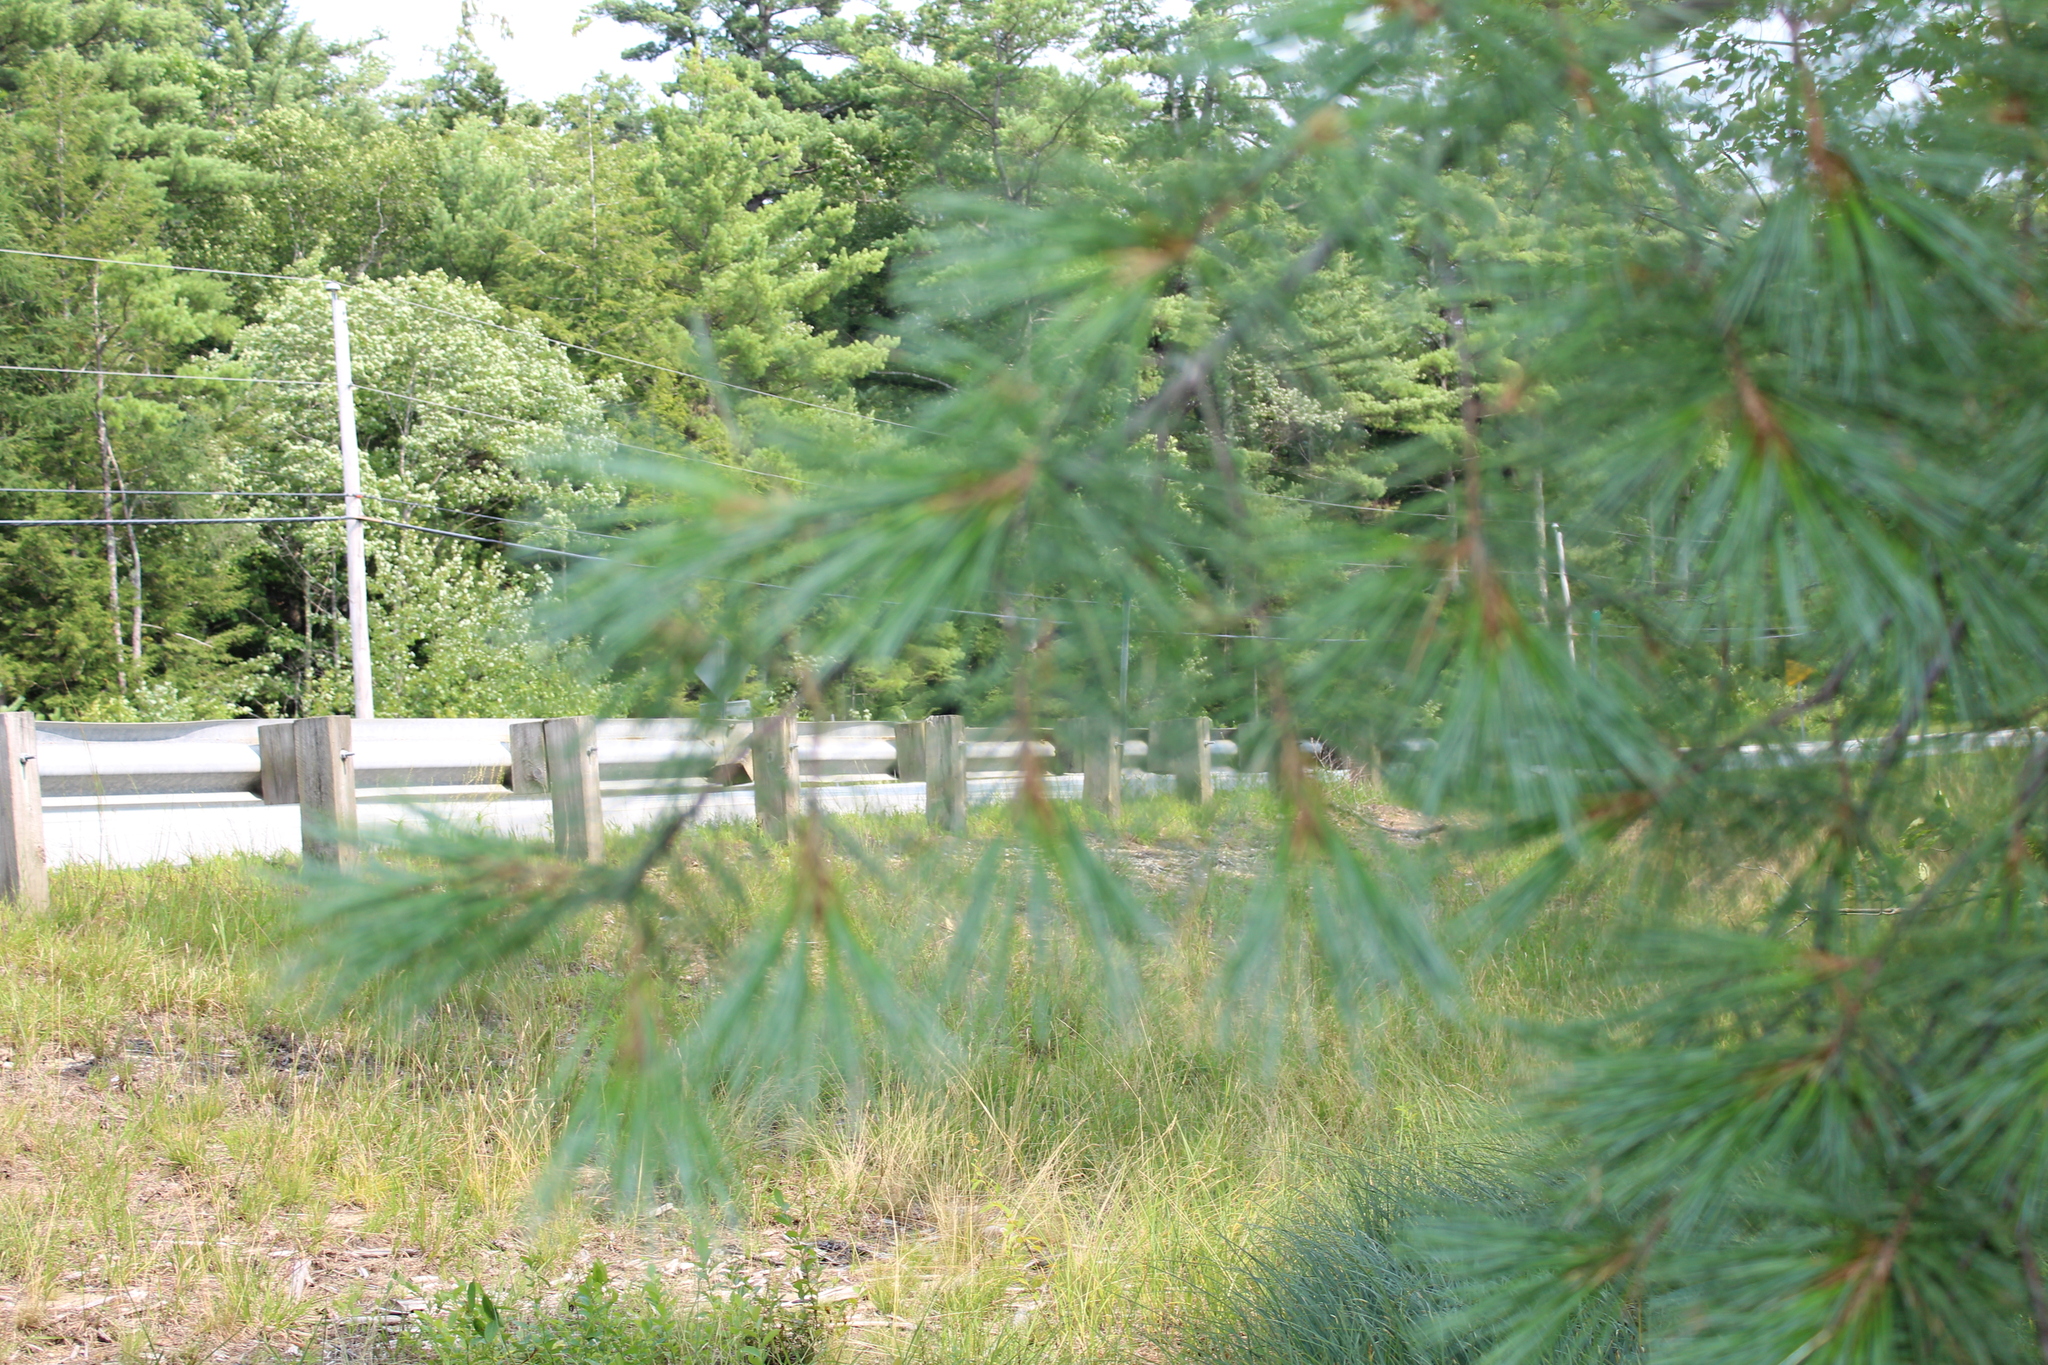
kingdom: Plantae
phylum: Tracheophyta
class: Pinopsida
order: Pinales
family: Pinaceae
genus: Pinus
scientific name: Pinus strobus
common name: Weymouth pine
